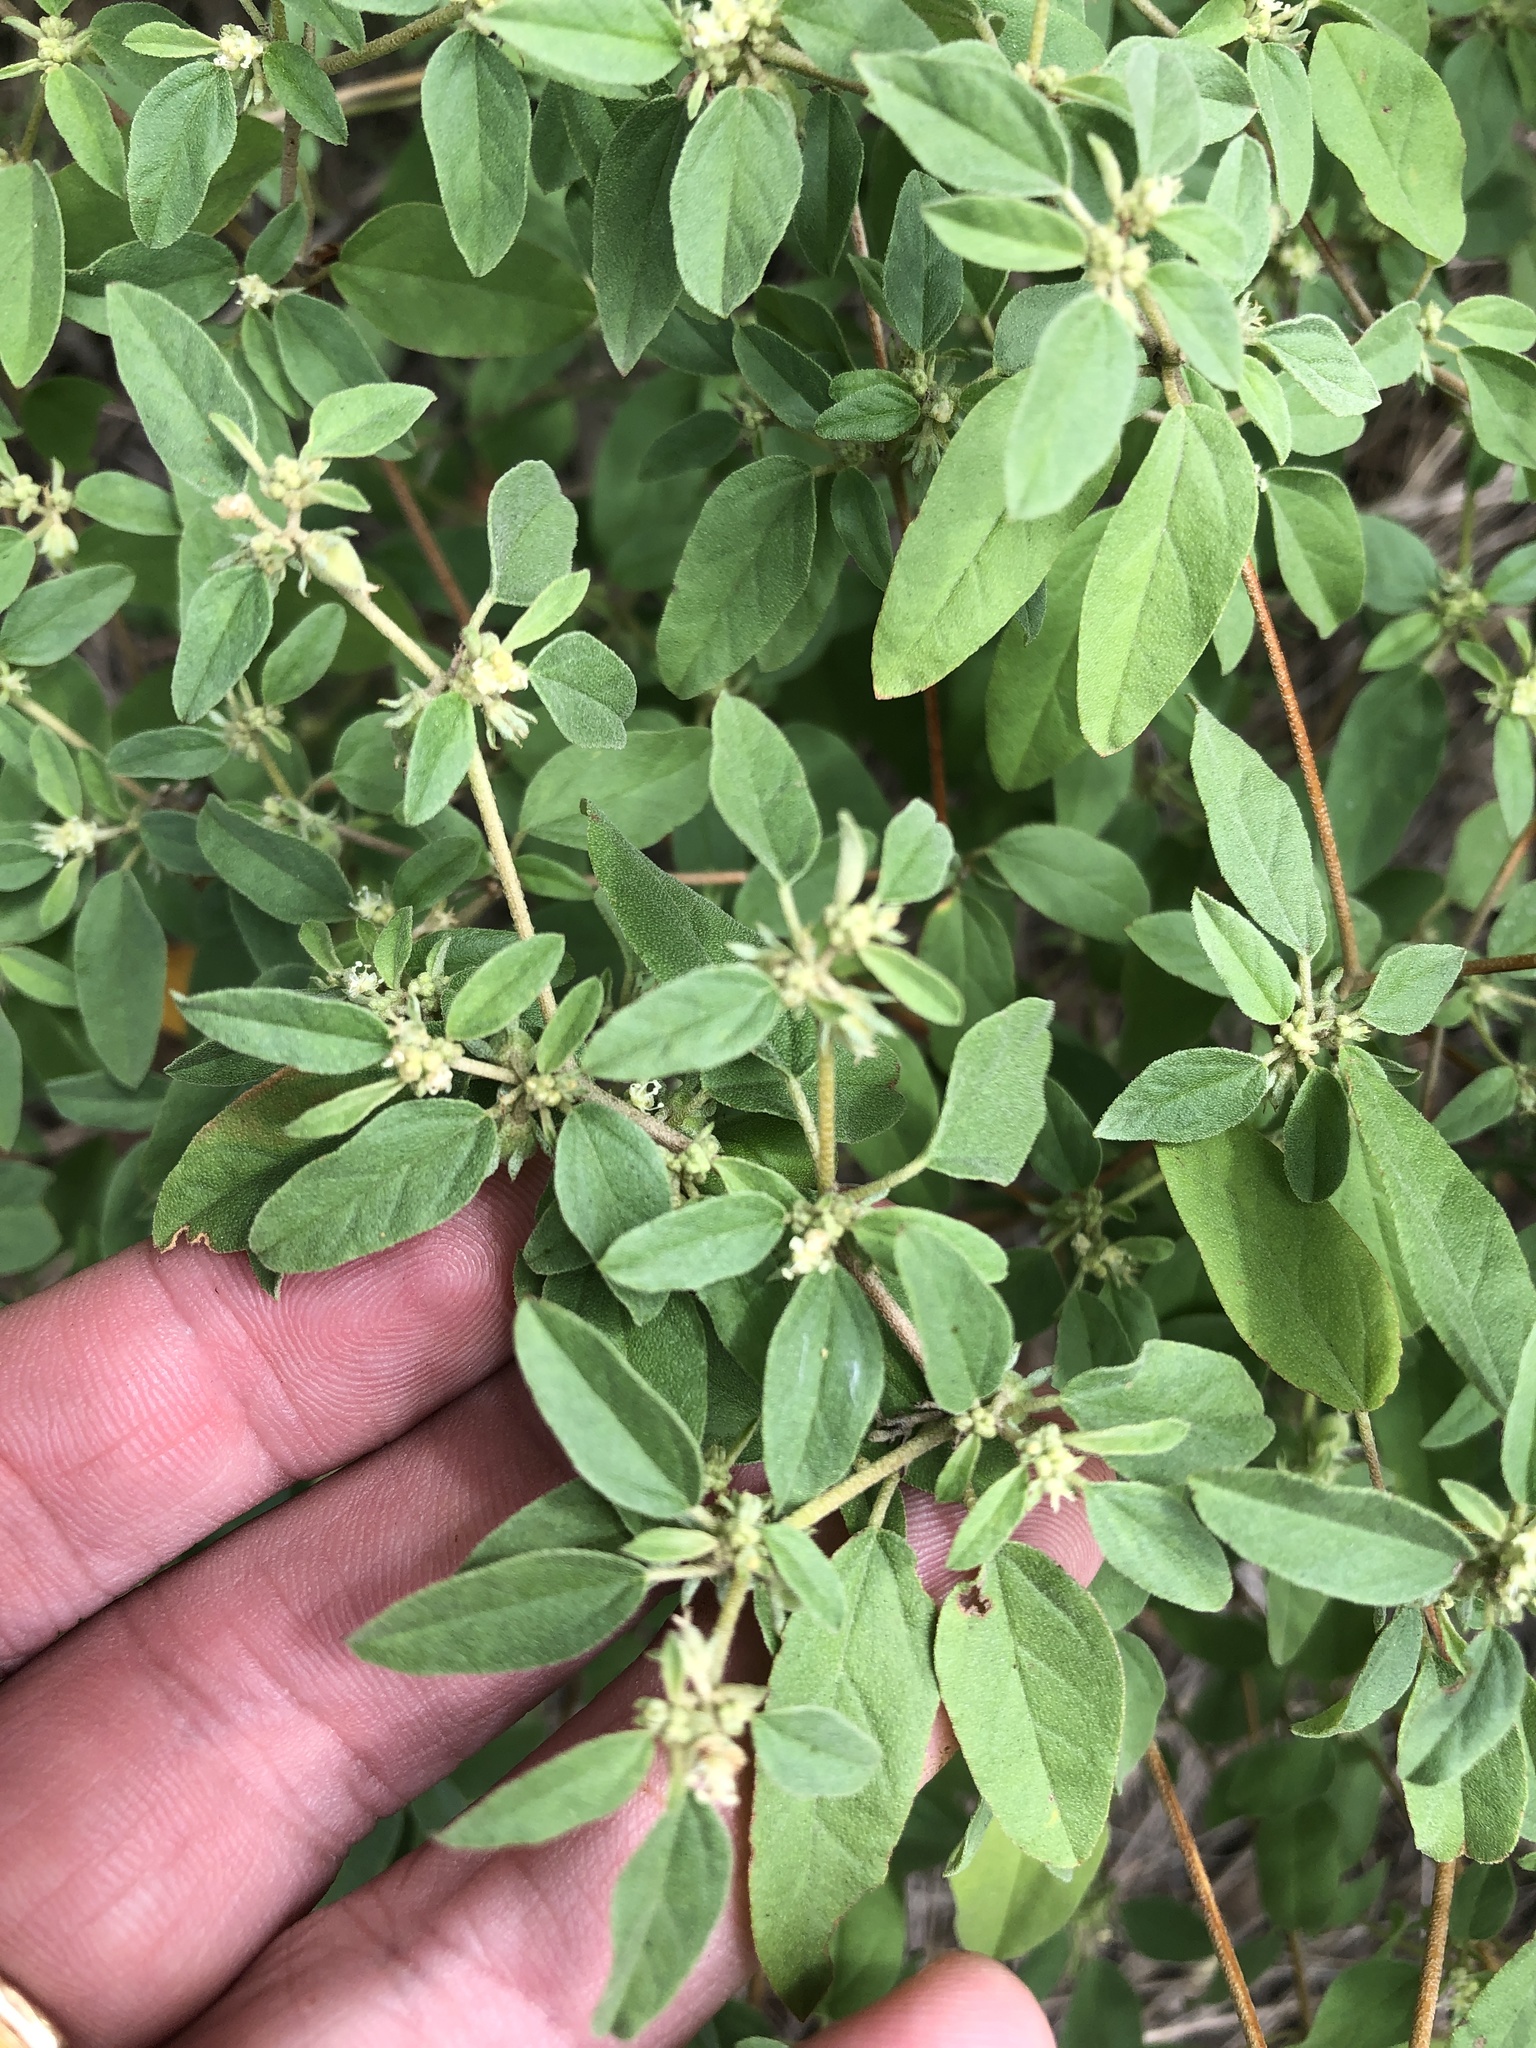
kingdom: Plantae
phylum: Tracheophyta
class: Magnoliopsida
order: Malpighiales
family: Euphorbiaceae
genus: Croton
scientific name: Croton monanthogynus
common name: One-seed croton
